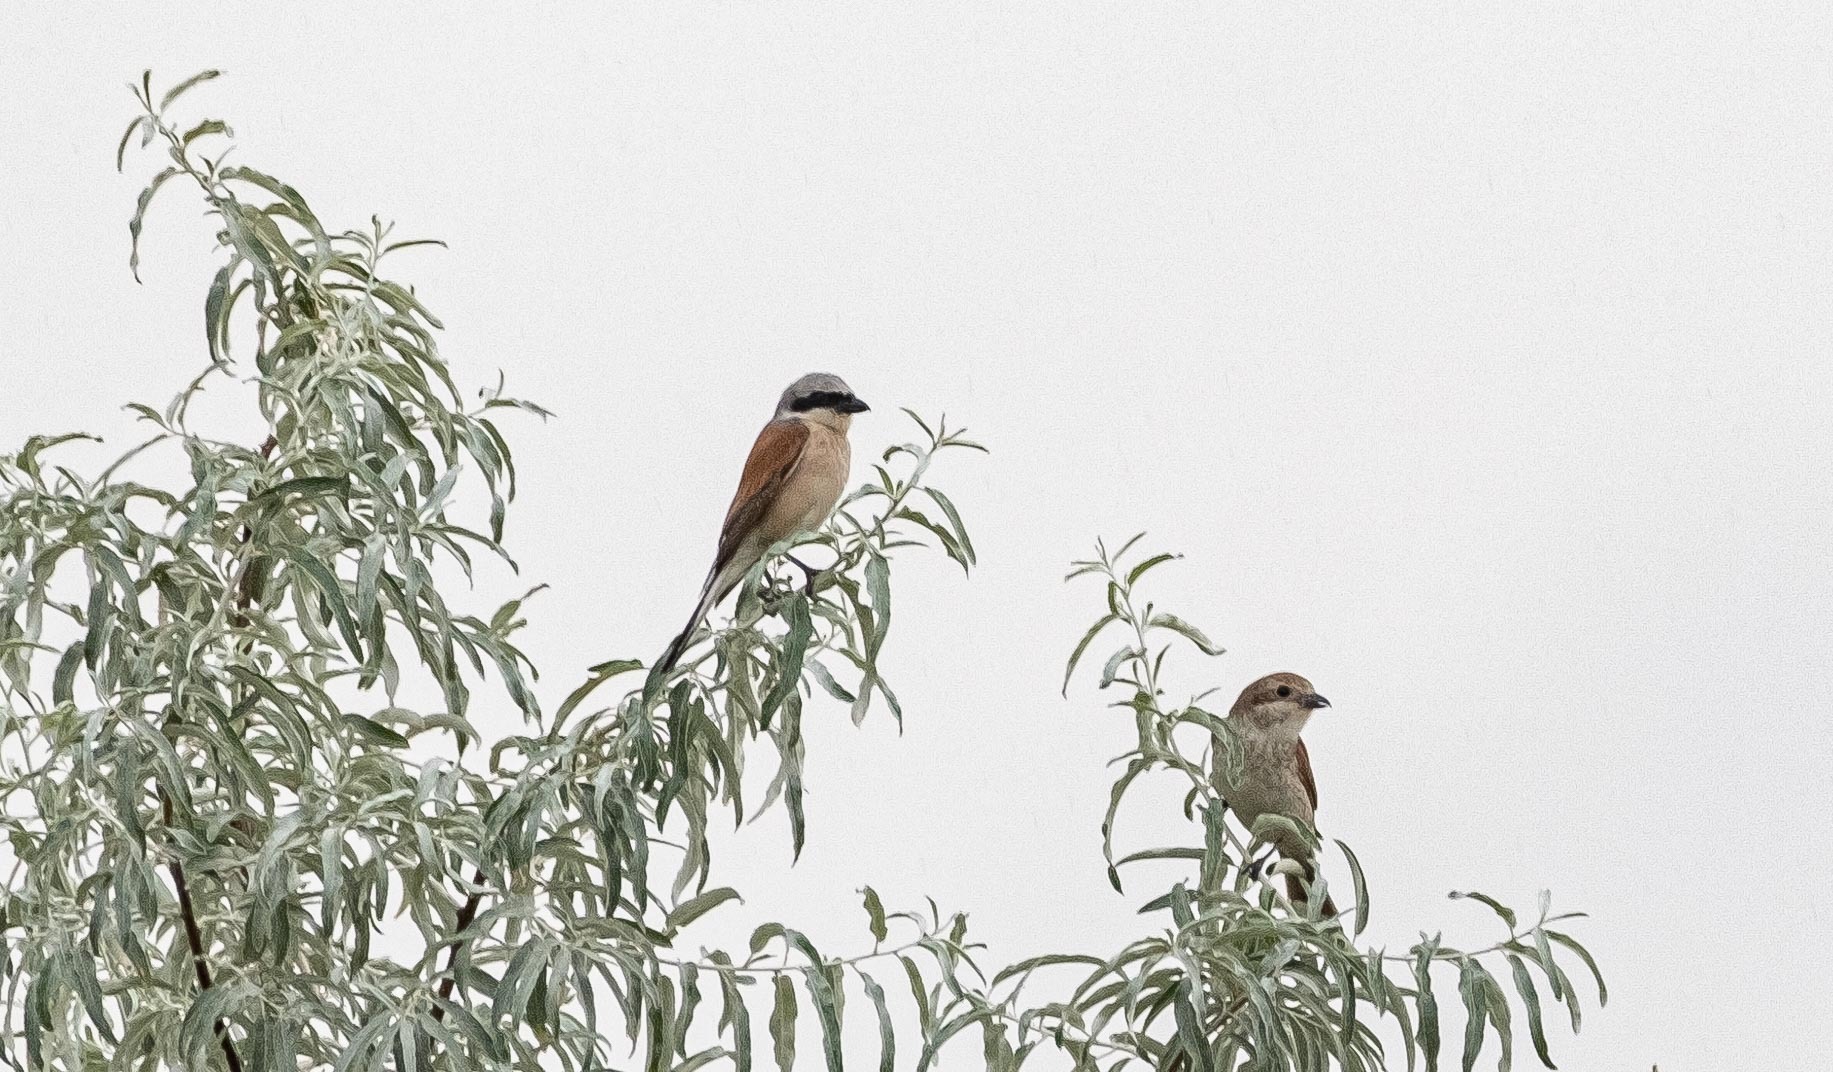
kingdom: Animalia
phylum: Chordata
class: Aves
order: Passeriformes
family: Laniidae
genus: Lanius
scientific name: Lanius collurio
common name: Red-backed shrike
